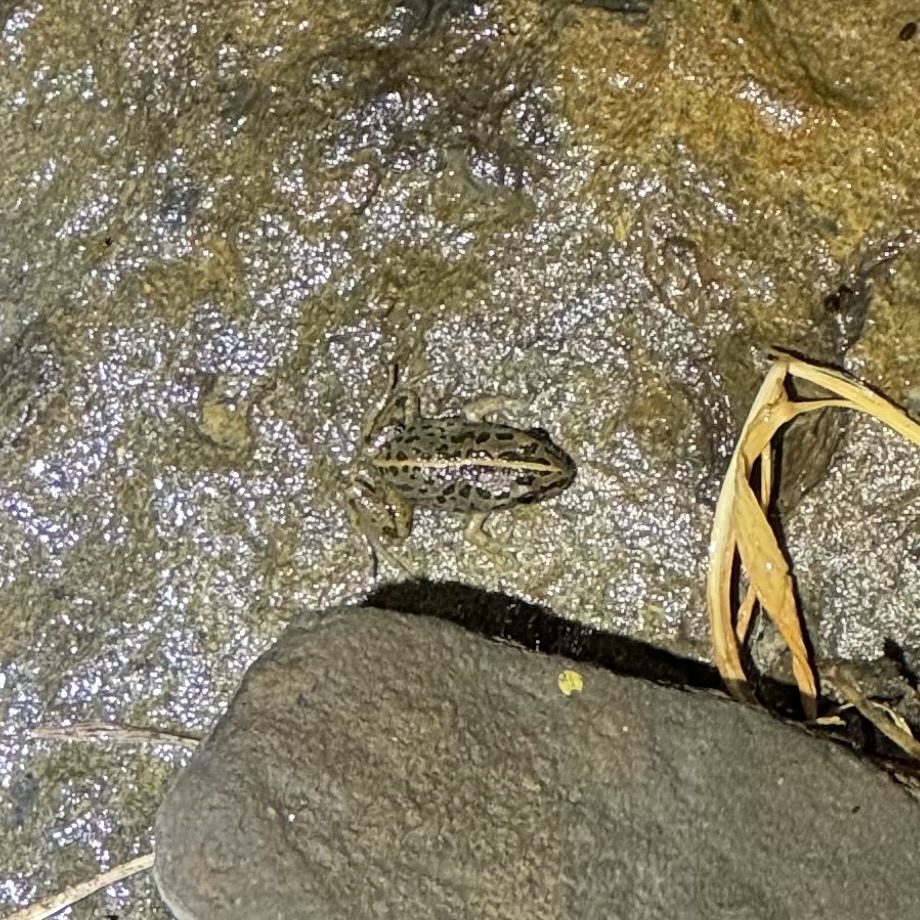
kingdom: Animalia
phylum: Chordata
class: Amphibia
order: Anura
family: Limnodynastidae
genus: Limnodynastes
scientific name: Limnodynastes tasmaniensis
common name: Spotted marsh frog
